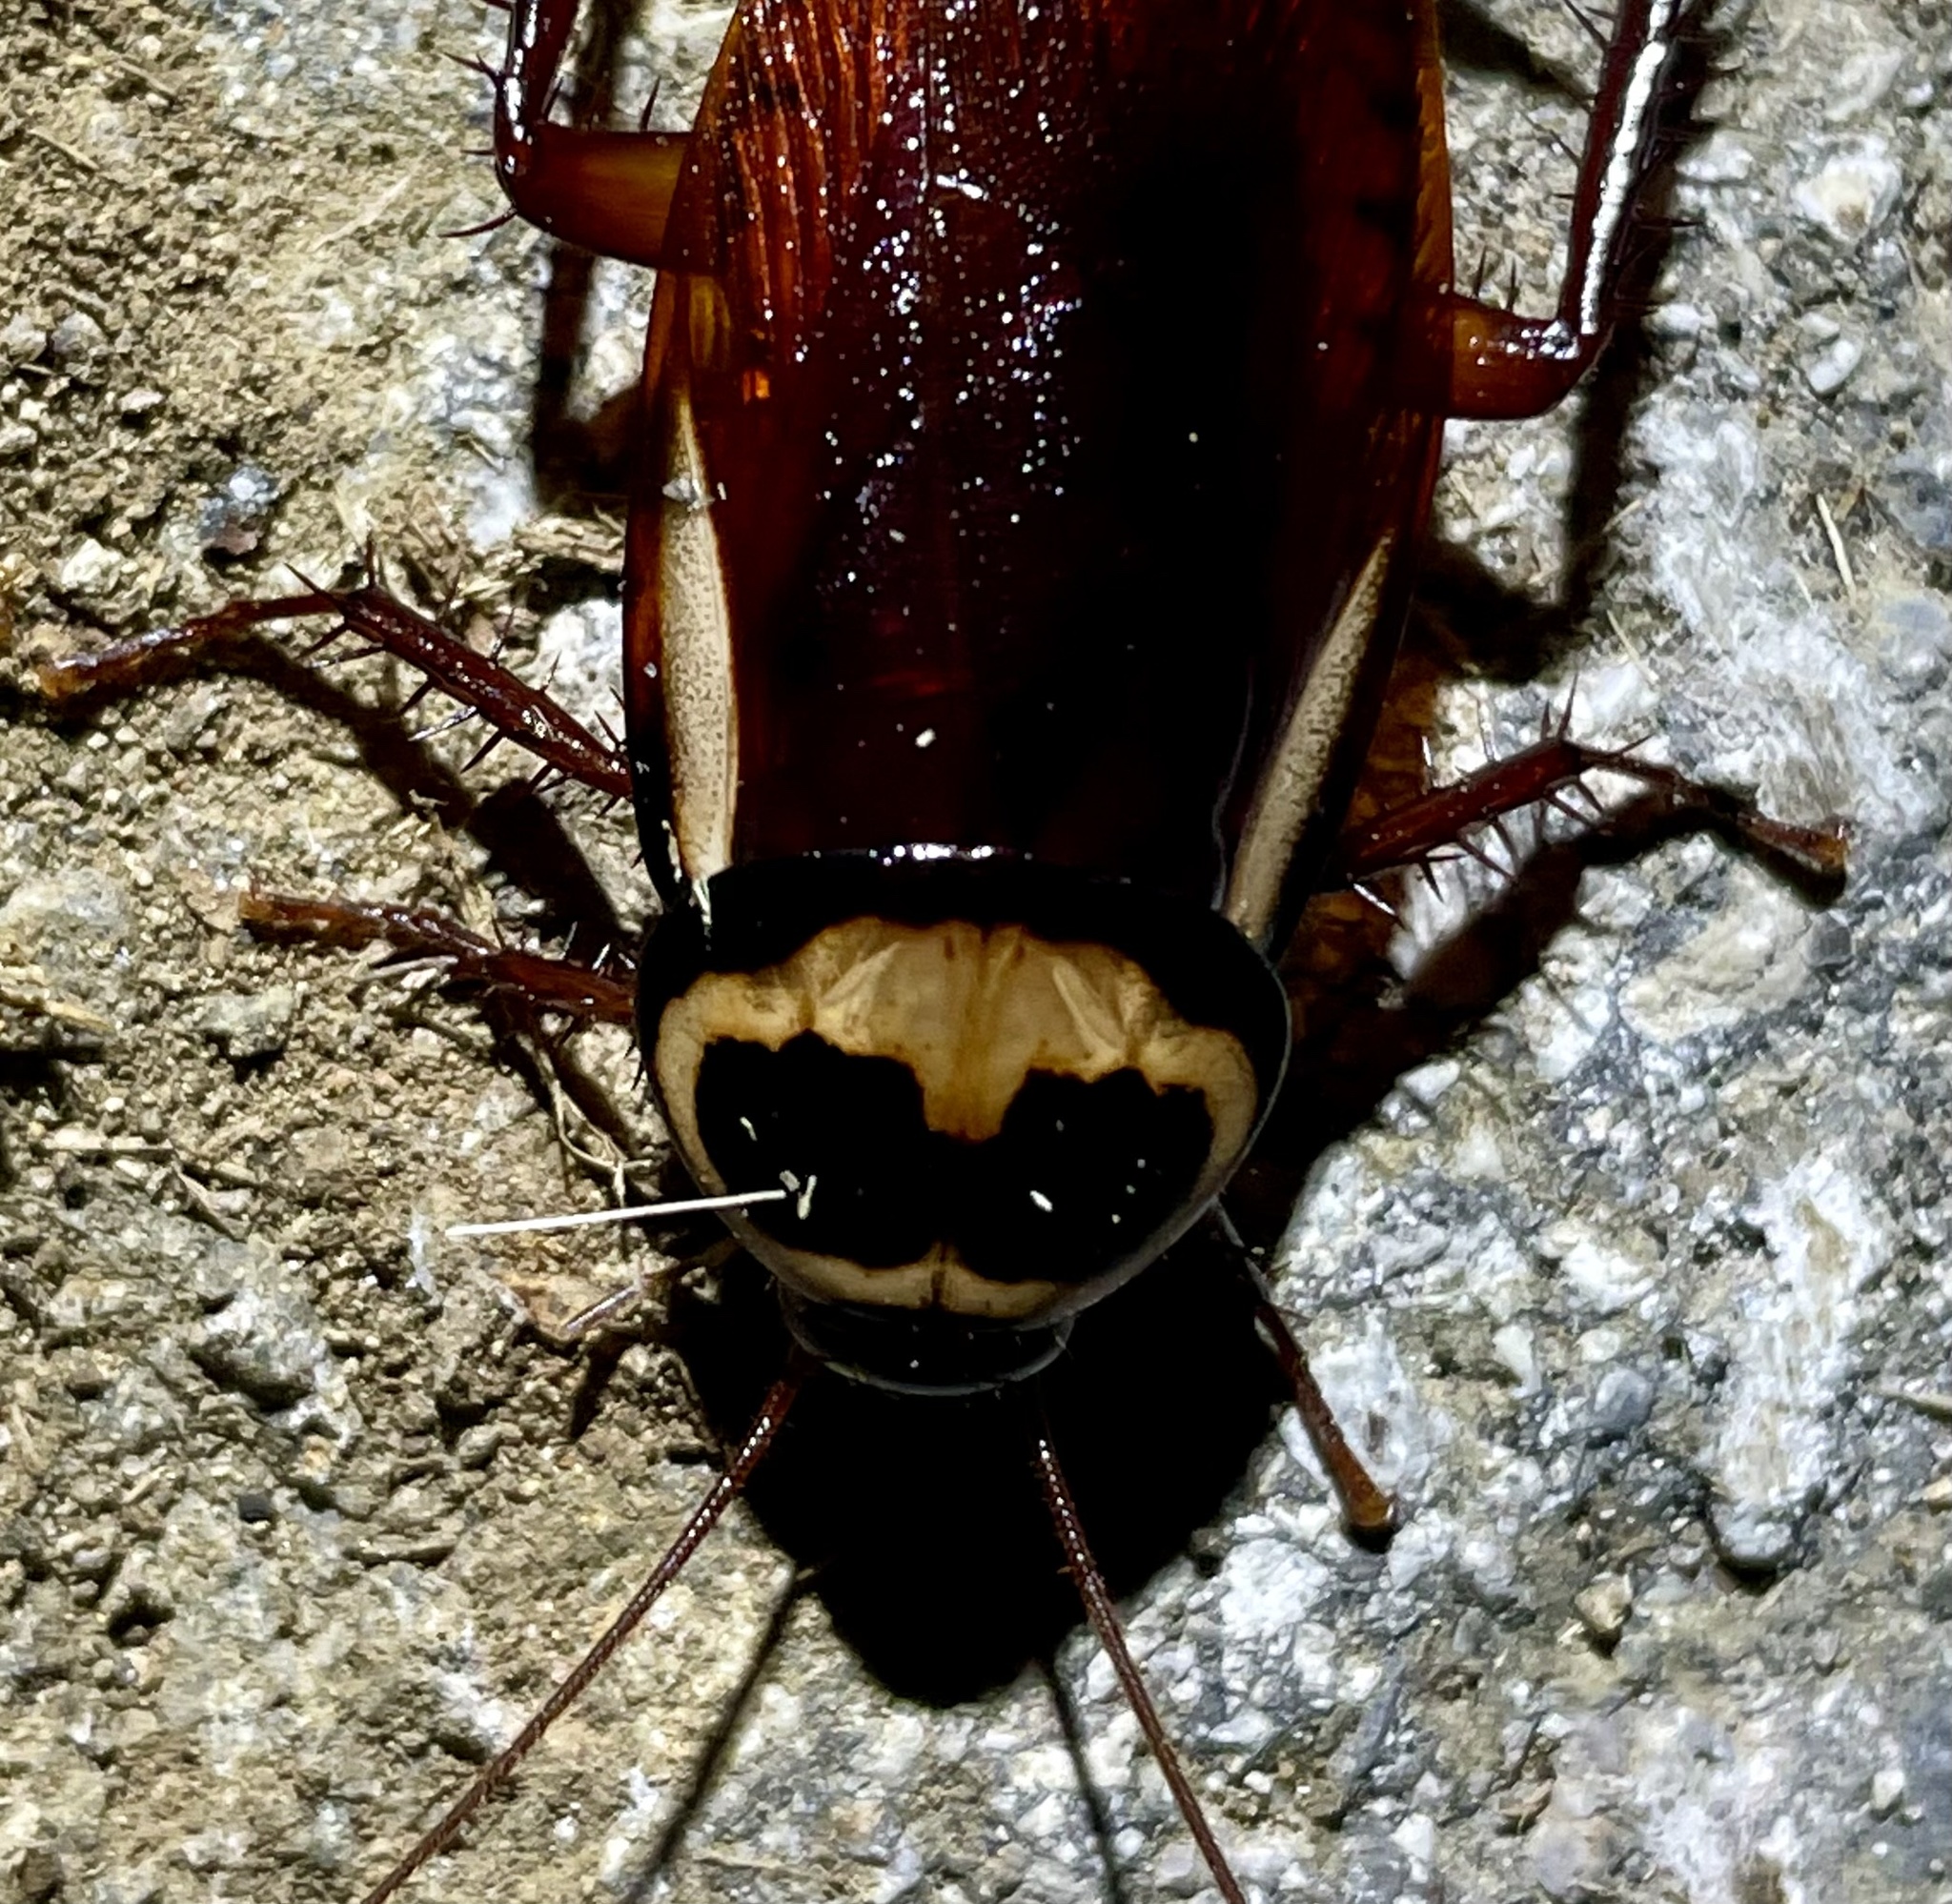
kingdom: Animalia
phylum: Arthropoda
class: Insecta
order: Blattodea
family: Blattidae
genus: Periplaneta
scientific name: Periplaneta australasiae
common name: Australian cockroach
